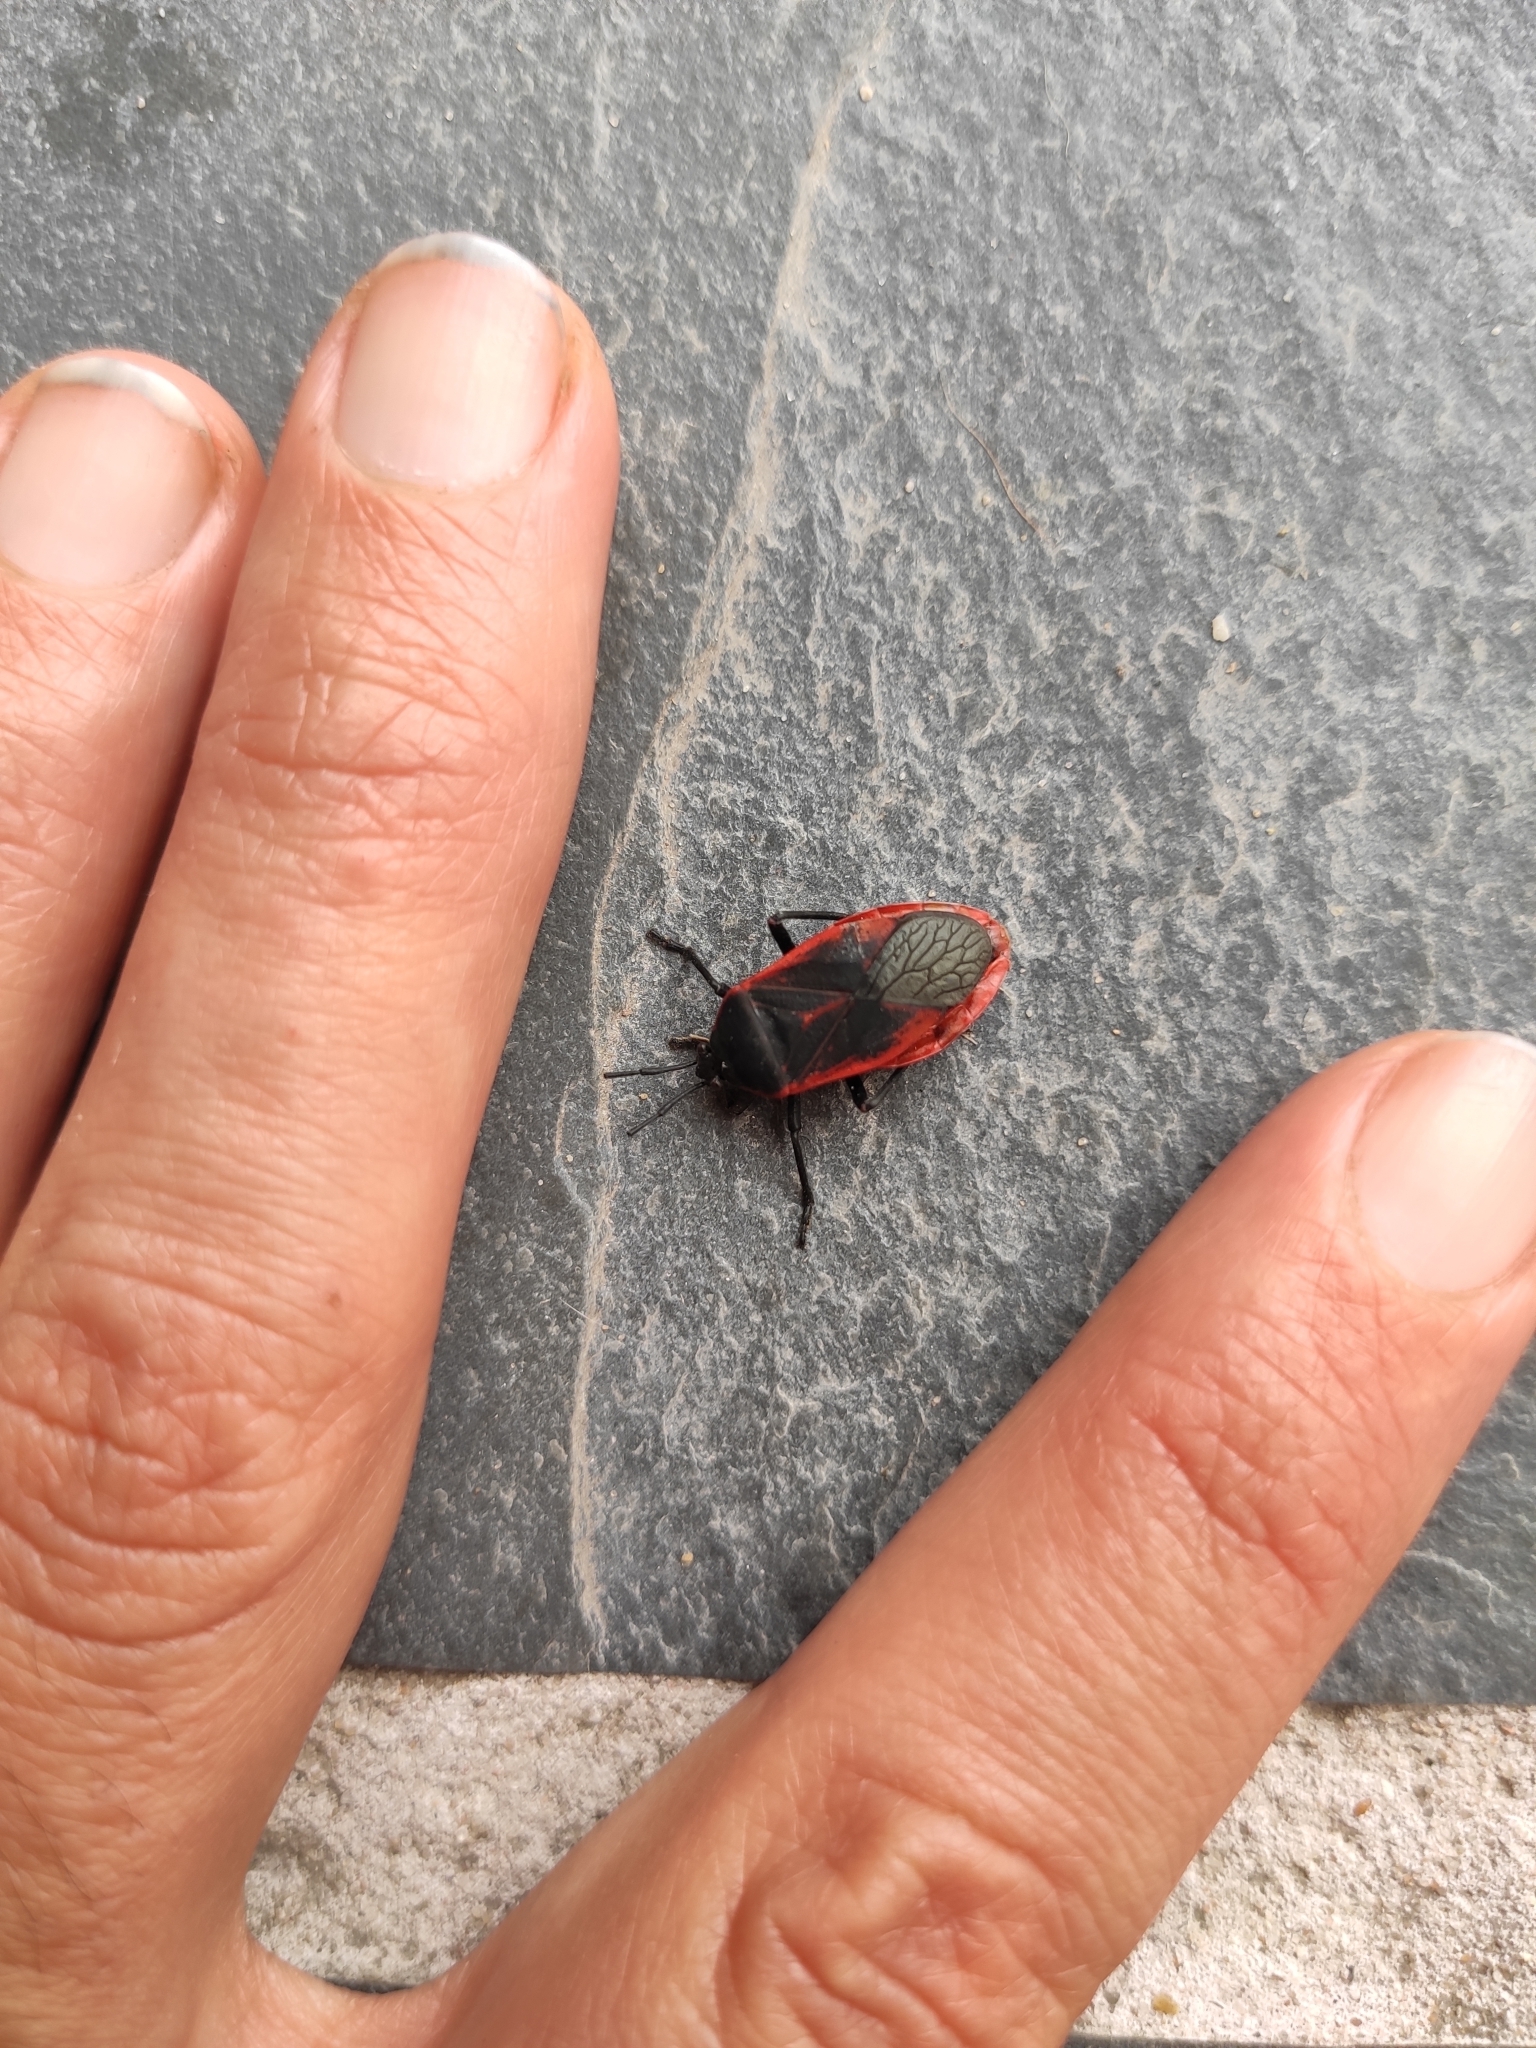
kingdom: Animalia
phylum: Arthropoda
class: Insecta
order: Hemiptera
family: Largidae
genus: Largus
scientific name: Largus rufipennis
